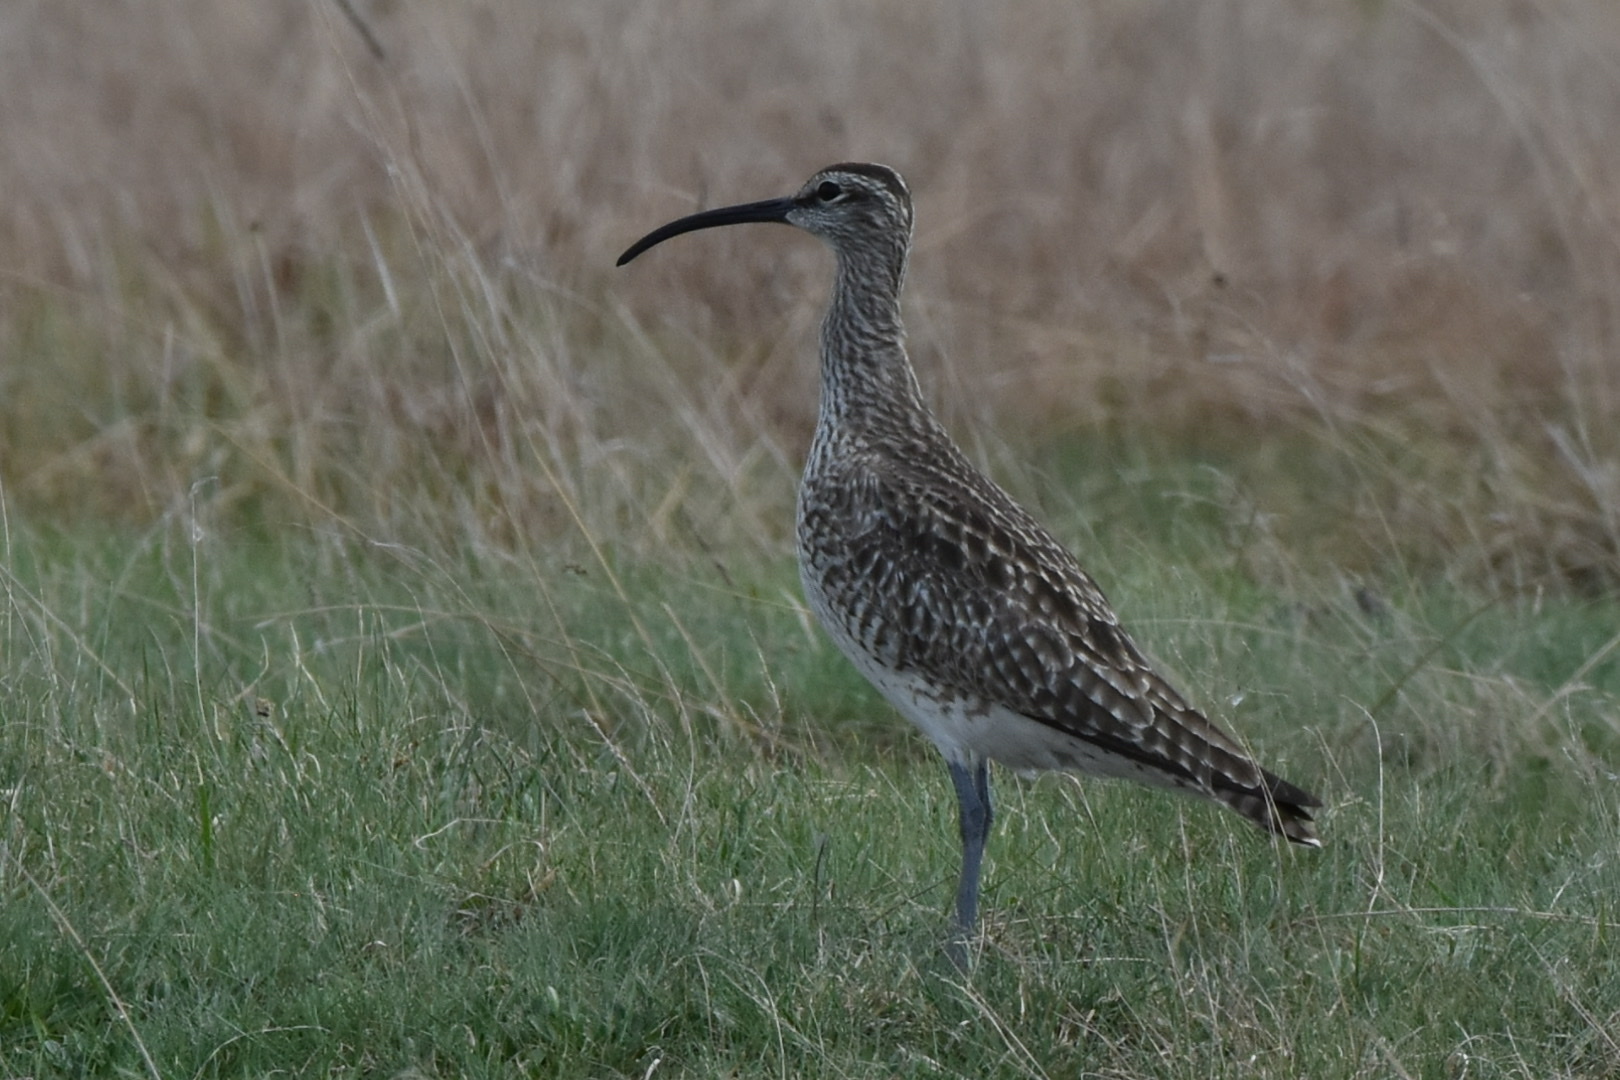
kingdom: Animalia
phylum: Chordata
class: Aves
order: Charadriiformes
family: Scolopacidae
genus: Numenius
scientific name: Numenius phaeopus
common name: Whimbrel
